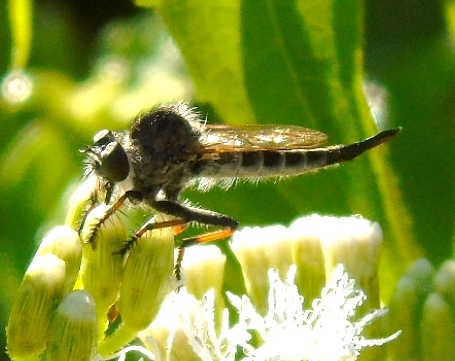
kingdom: Animalia
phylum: Arthropoda
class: Insecta
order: Diptera
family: Asilidae
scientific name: Asilidae
